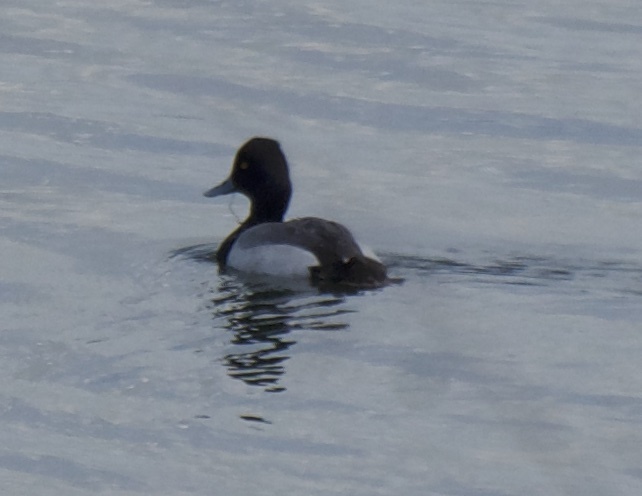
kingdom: Animalia
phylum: Chordata
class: Aves
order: Anseriformes
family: Anatidae
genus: Aythya
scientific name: Aythya affinis
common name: Lesser scaup
